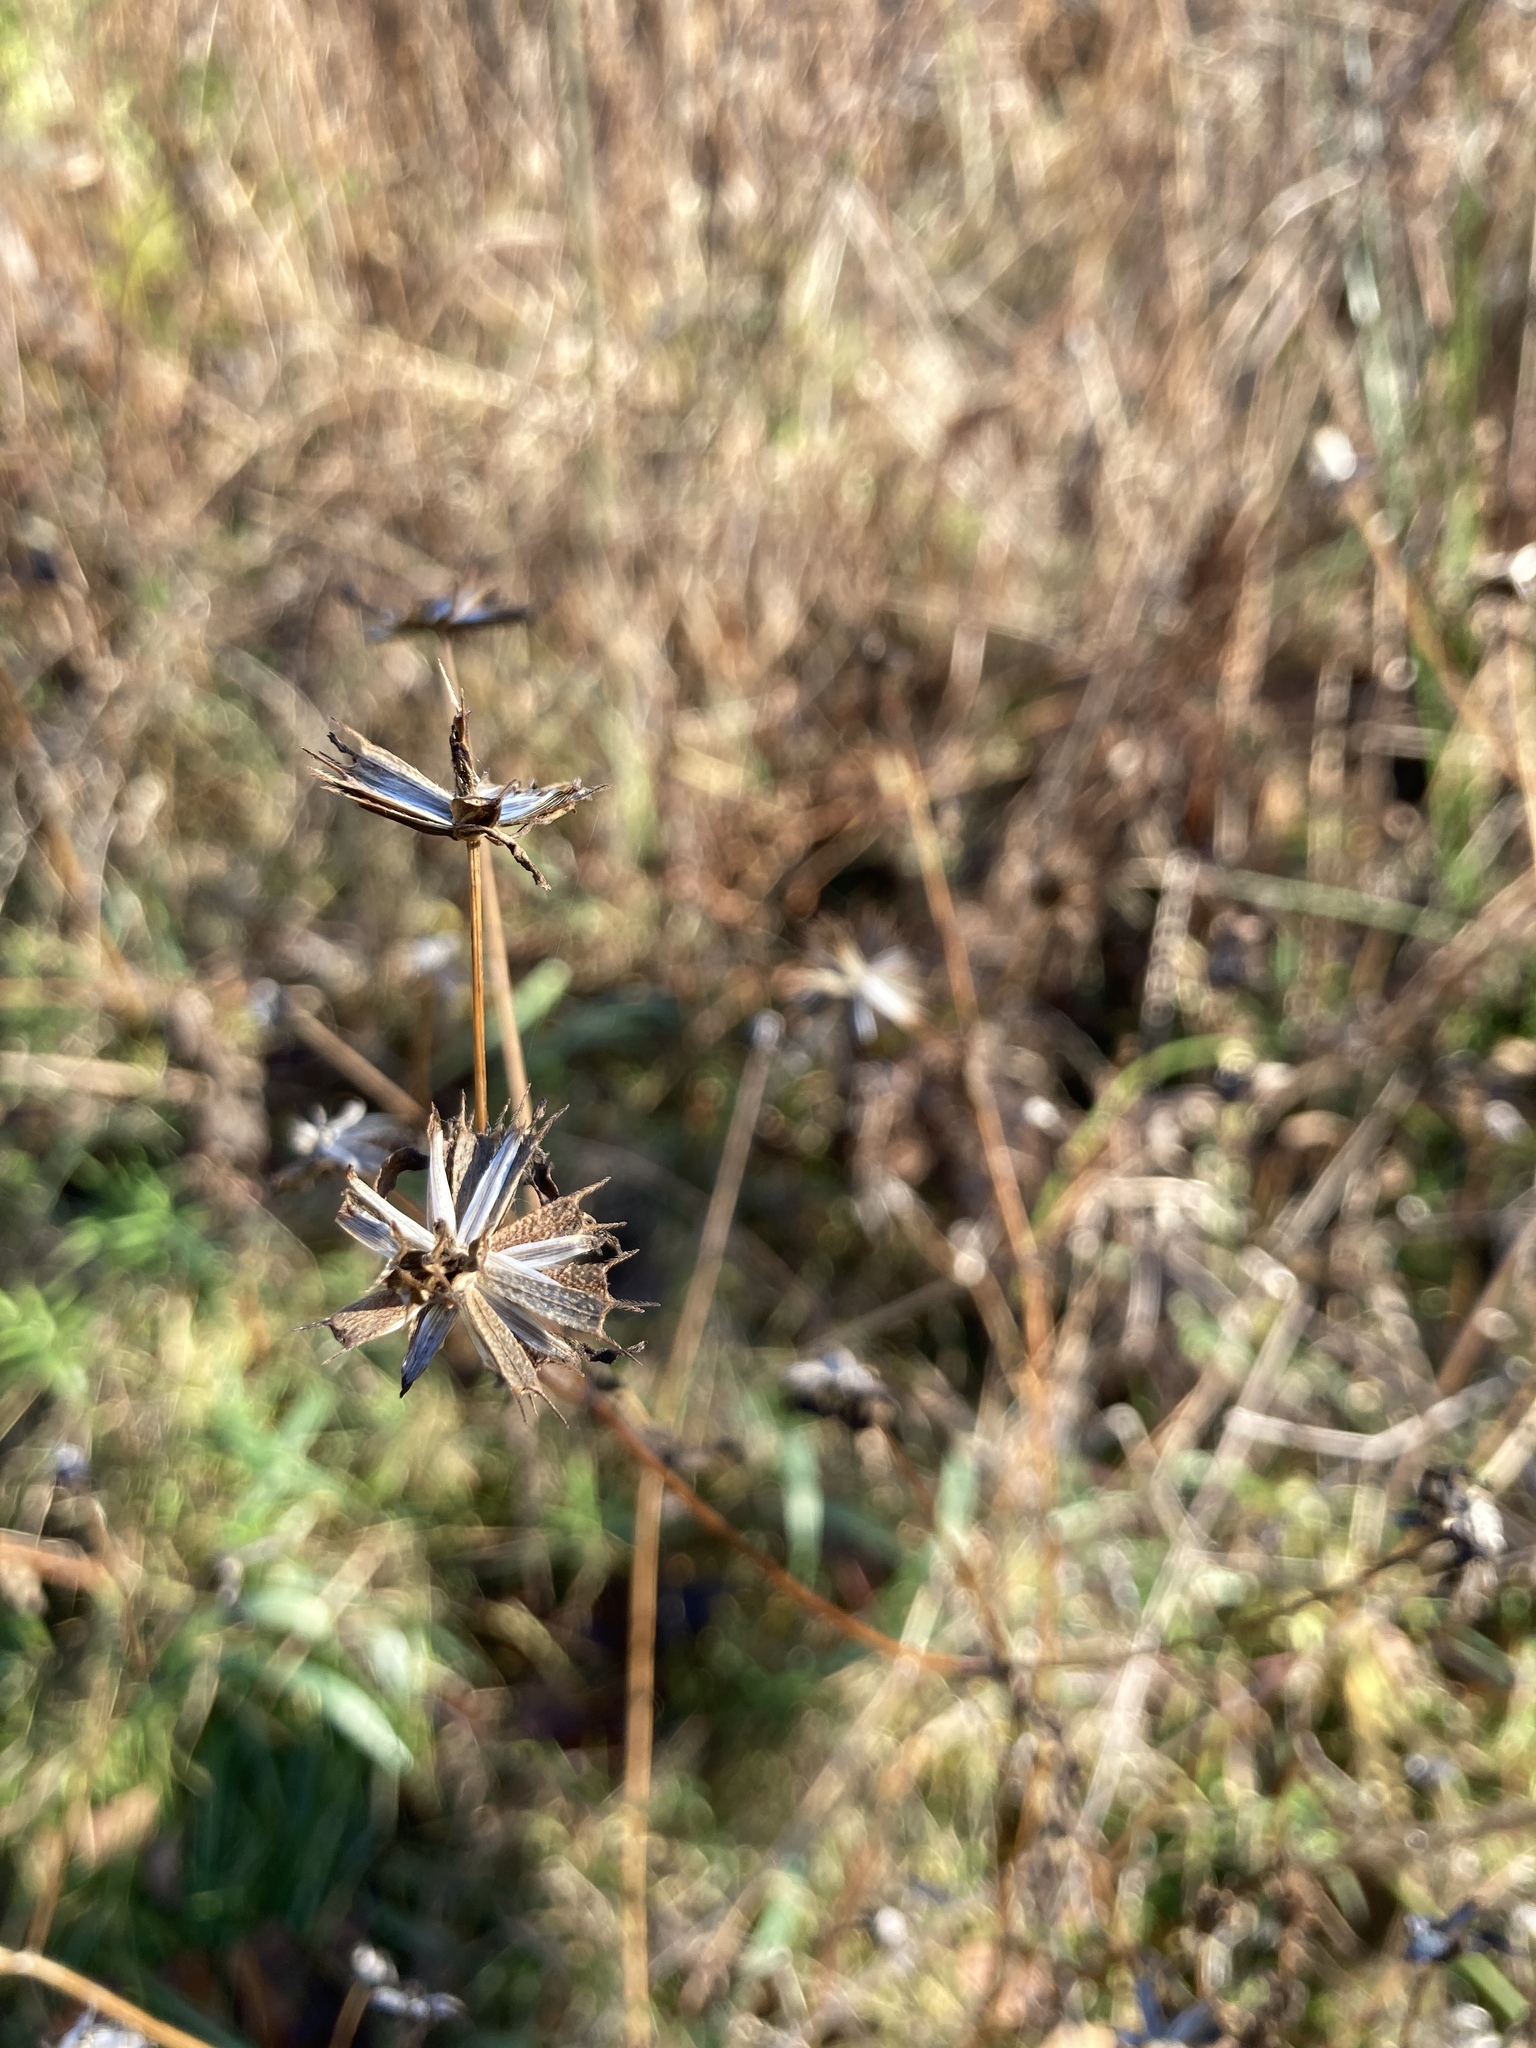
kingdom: Plantae
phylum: Tracheophyta
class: Magnoliopsida
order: Asterales
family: Asteraceae
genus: Bidens
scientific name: Bidens frondosa
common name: Beggarticks
